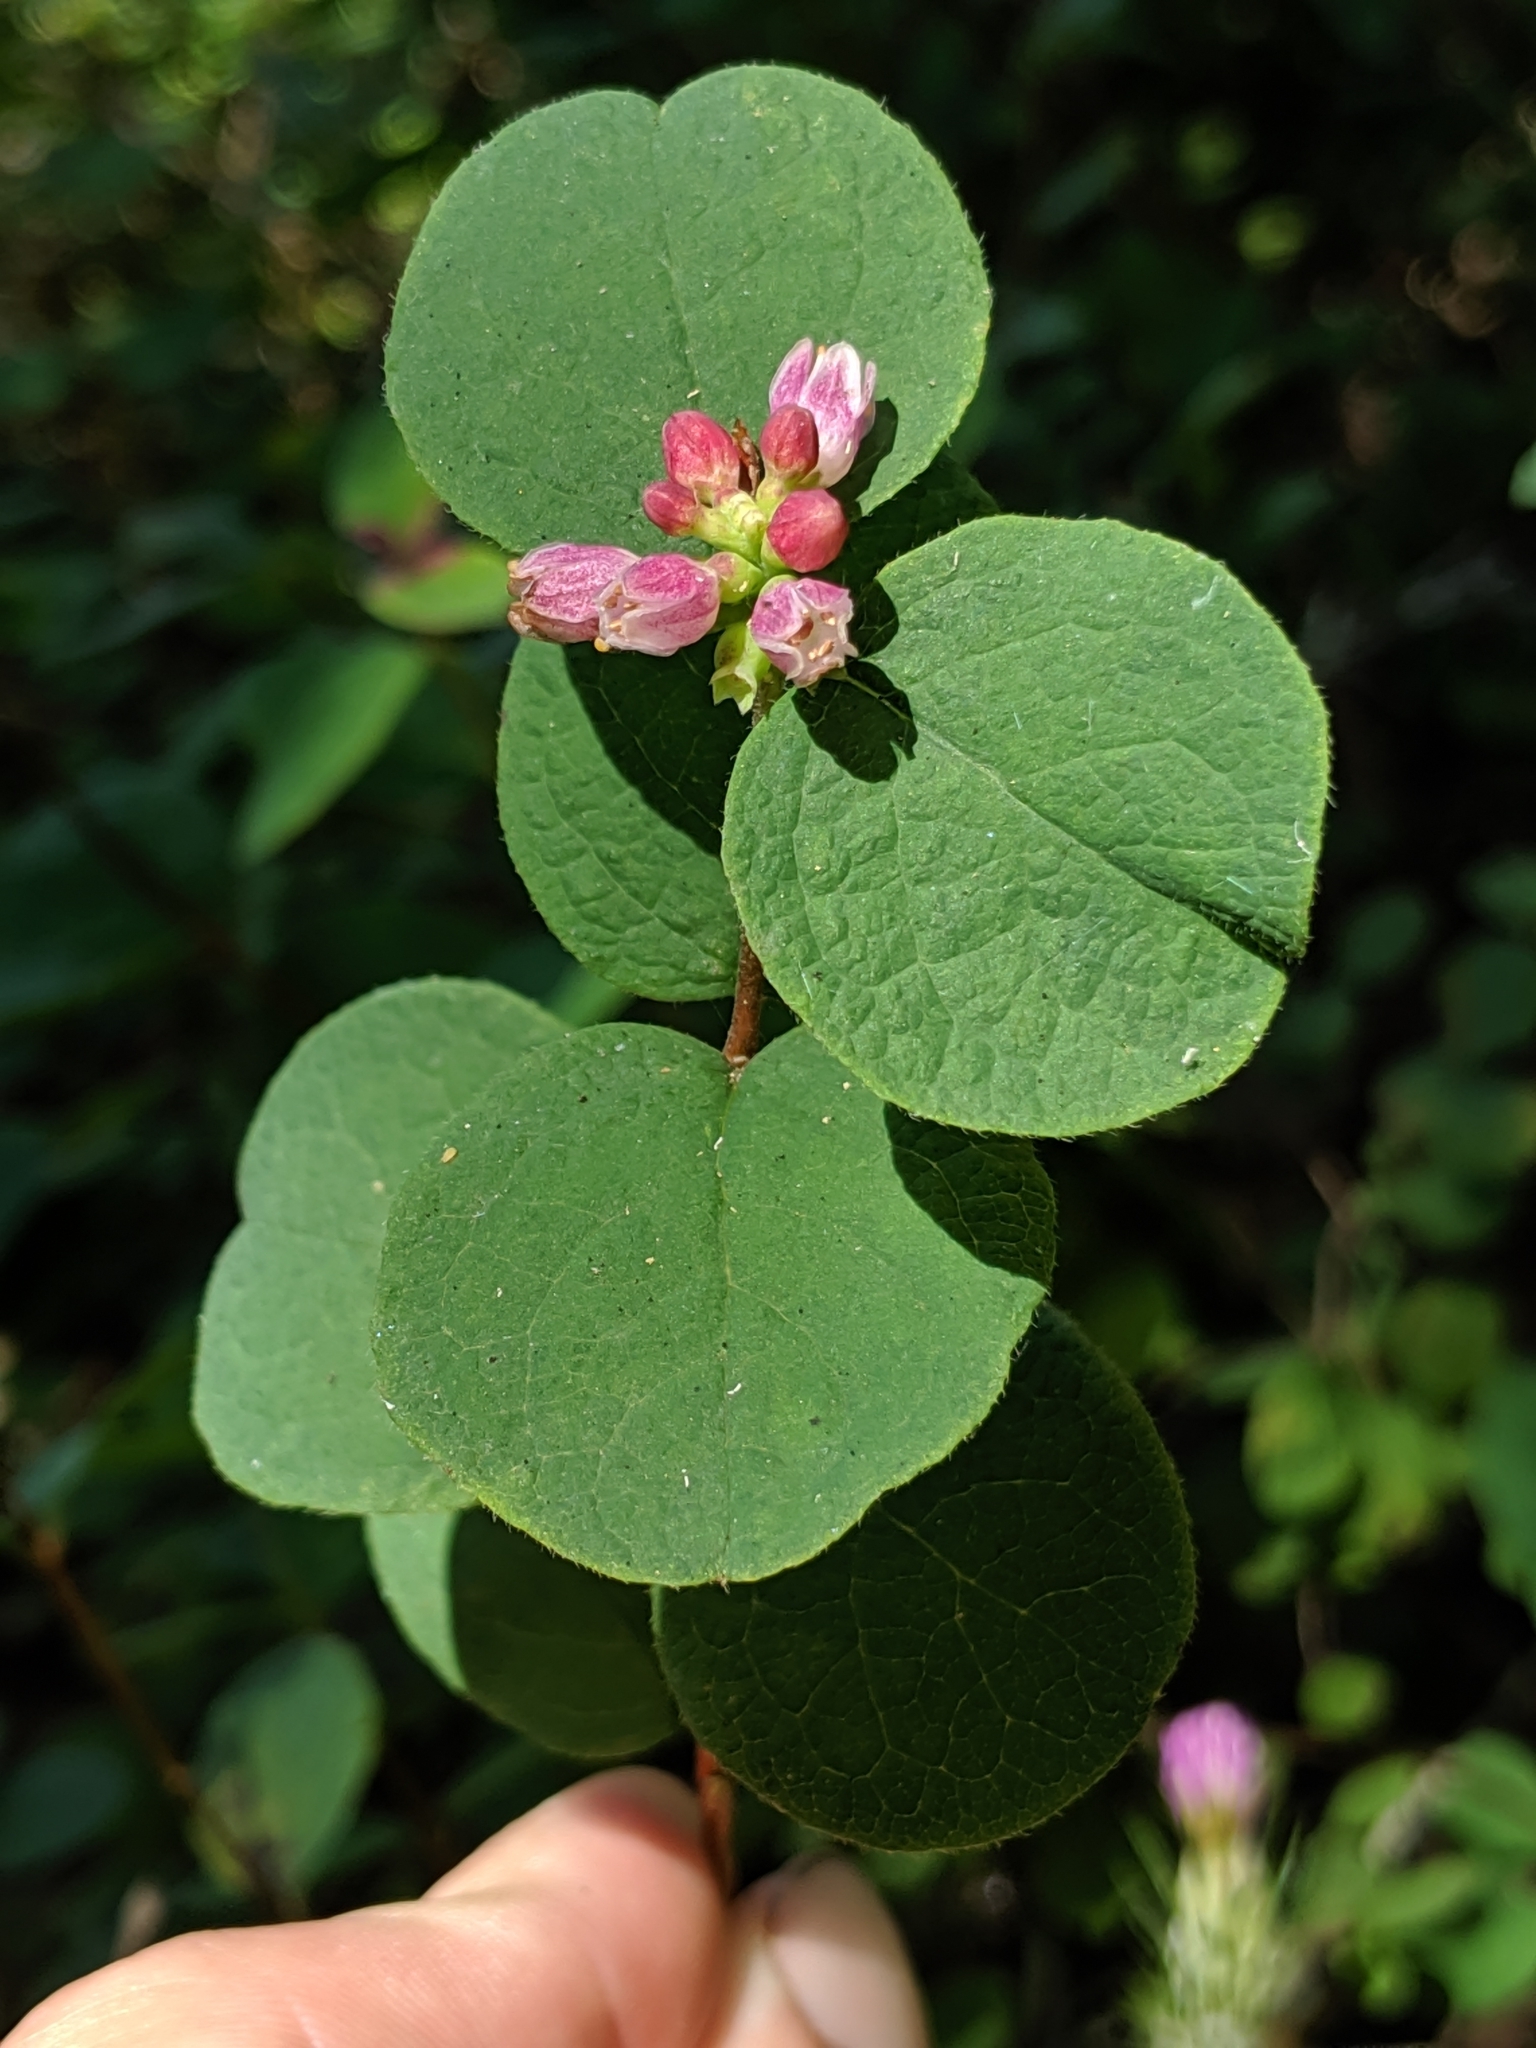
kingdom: Plantae
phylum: Tracheophyta
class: Magnoliopsida
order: Dipsacales
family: Caprifoliaceae
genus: Symphoricarpos
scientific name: Symphoricarpos mollis
